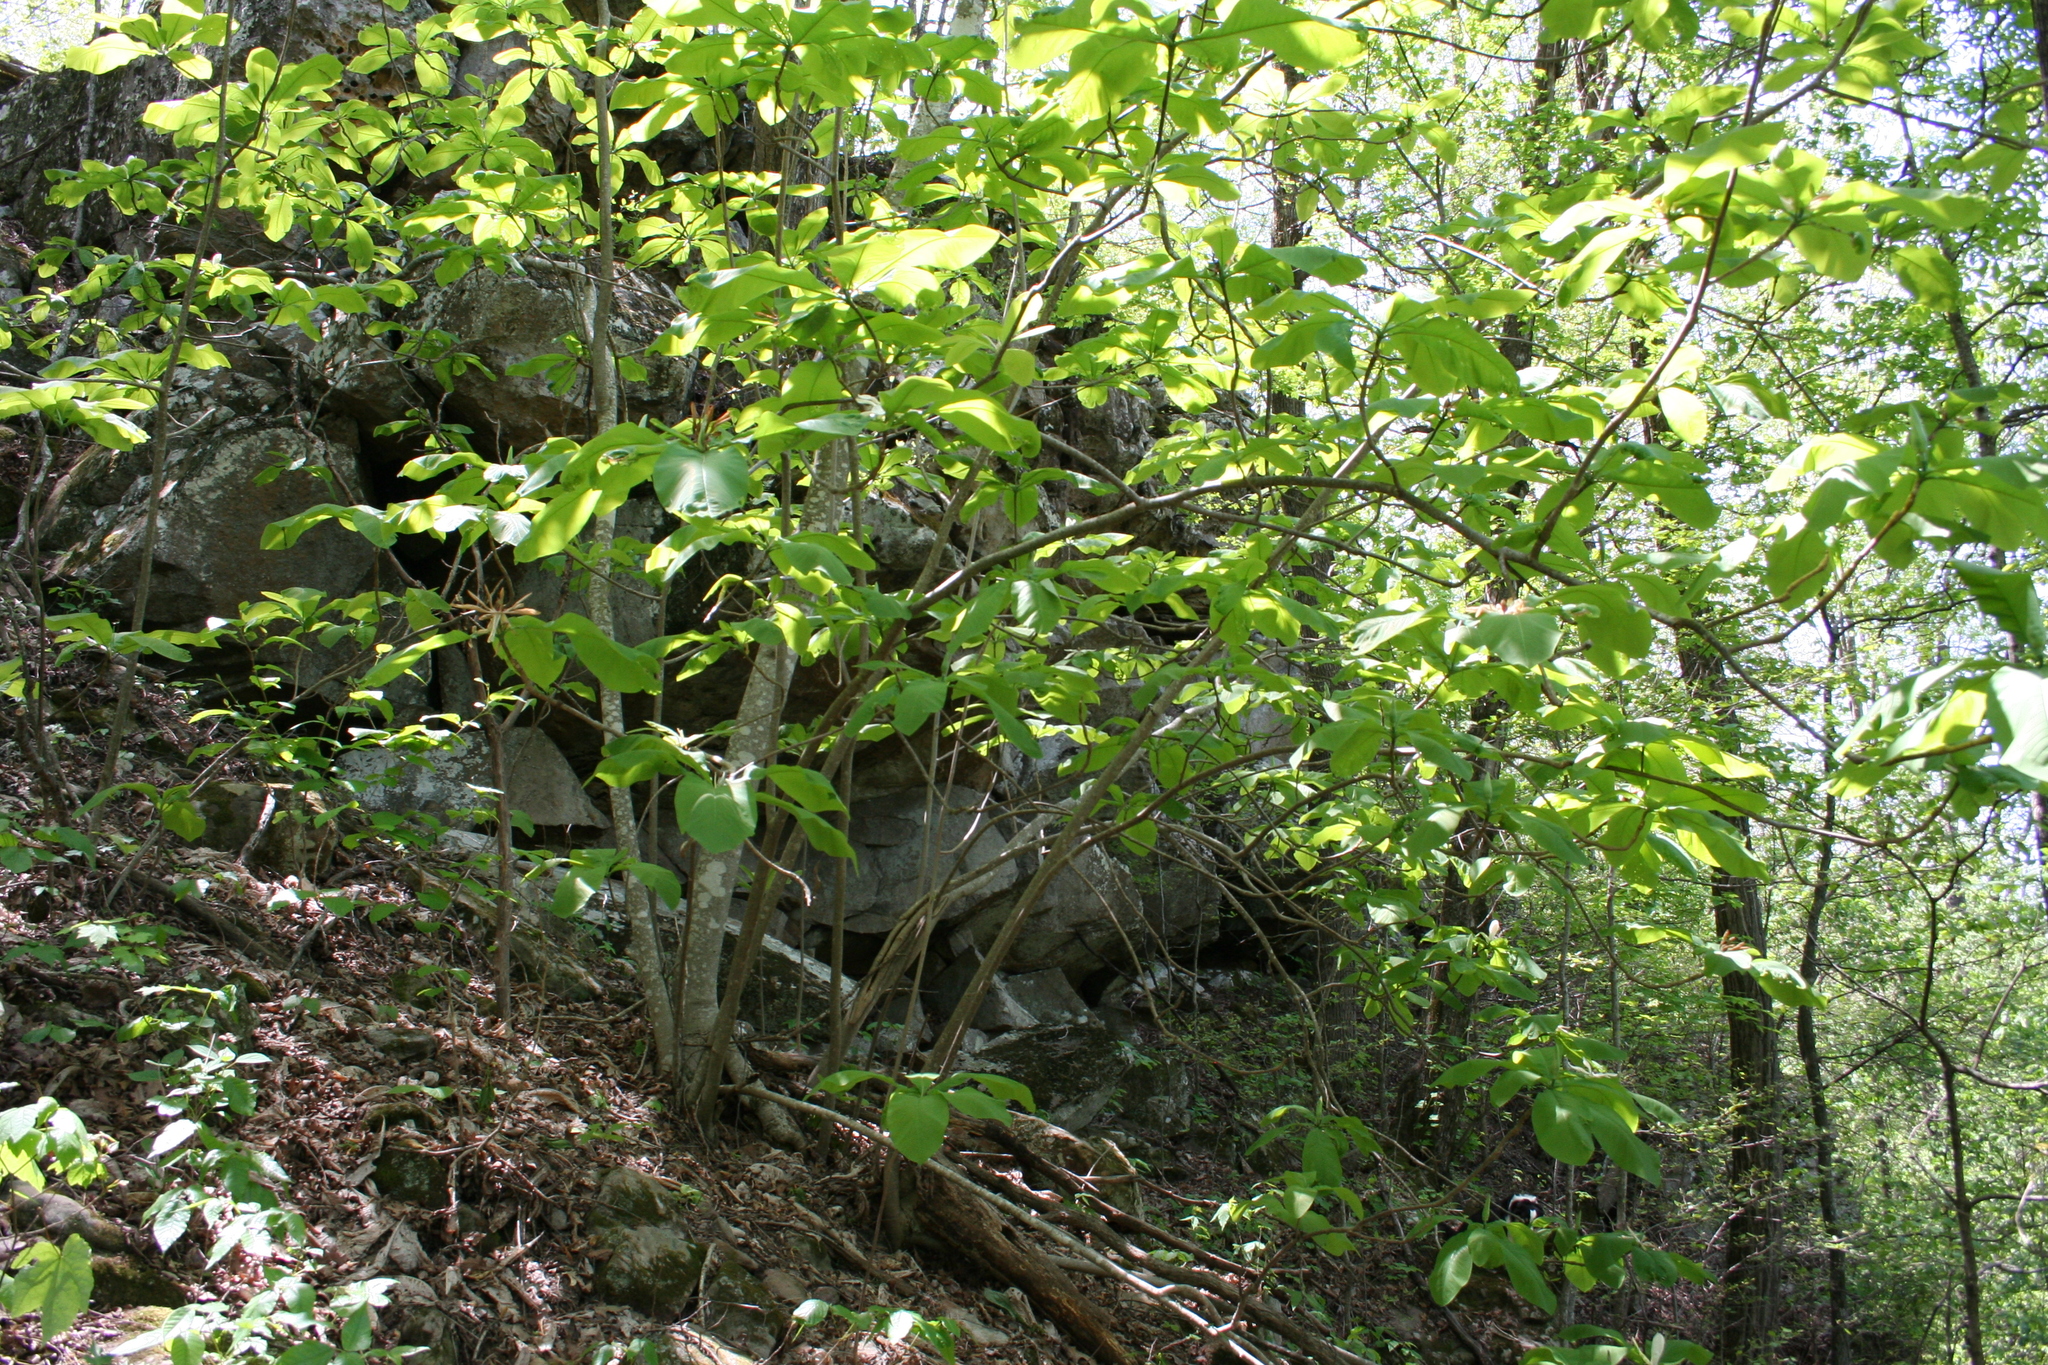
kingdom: Plantae
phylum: Tracheophyta
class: Magnoliopsida
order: Magnoliales
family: Magnoliaceae
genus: Magnolia
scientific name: Magnolia tripetala
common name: Umbrella magnolia
